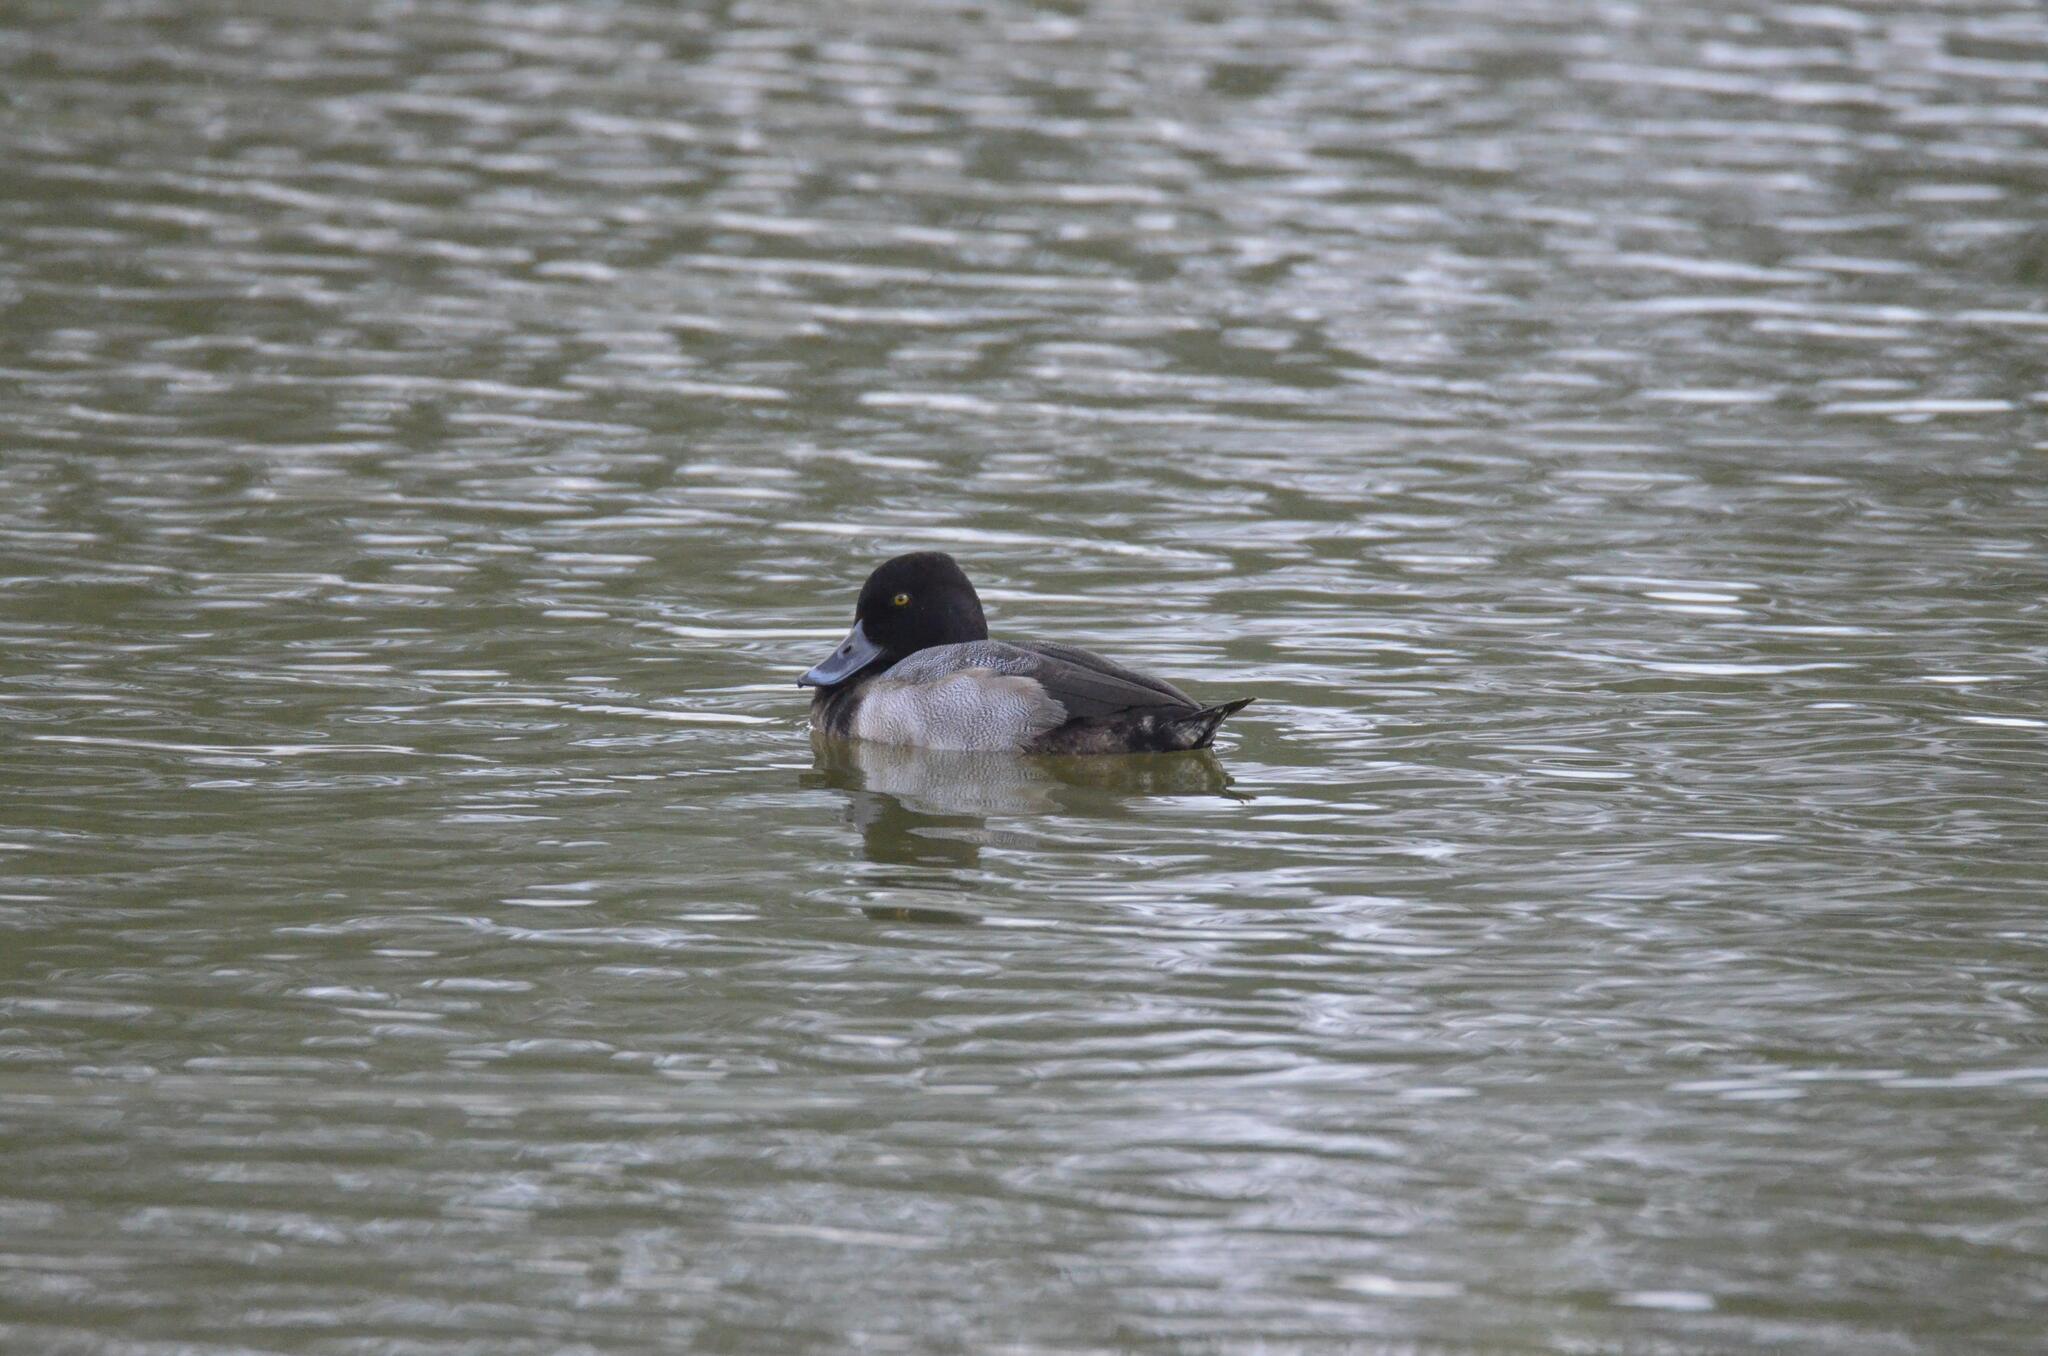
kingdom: Animalia
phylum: Chordata
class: Aves
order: Anseriformes
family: Anatidae
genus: Aythya
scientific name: Aythya affinis
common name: Lesser scaup
